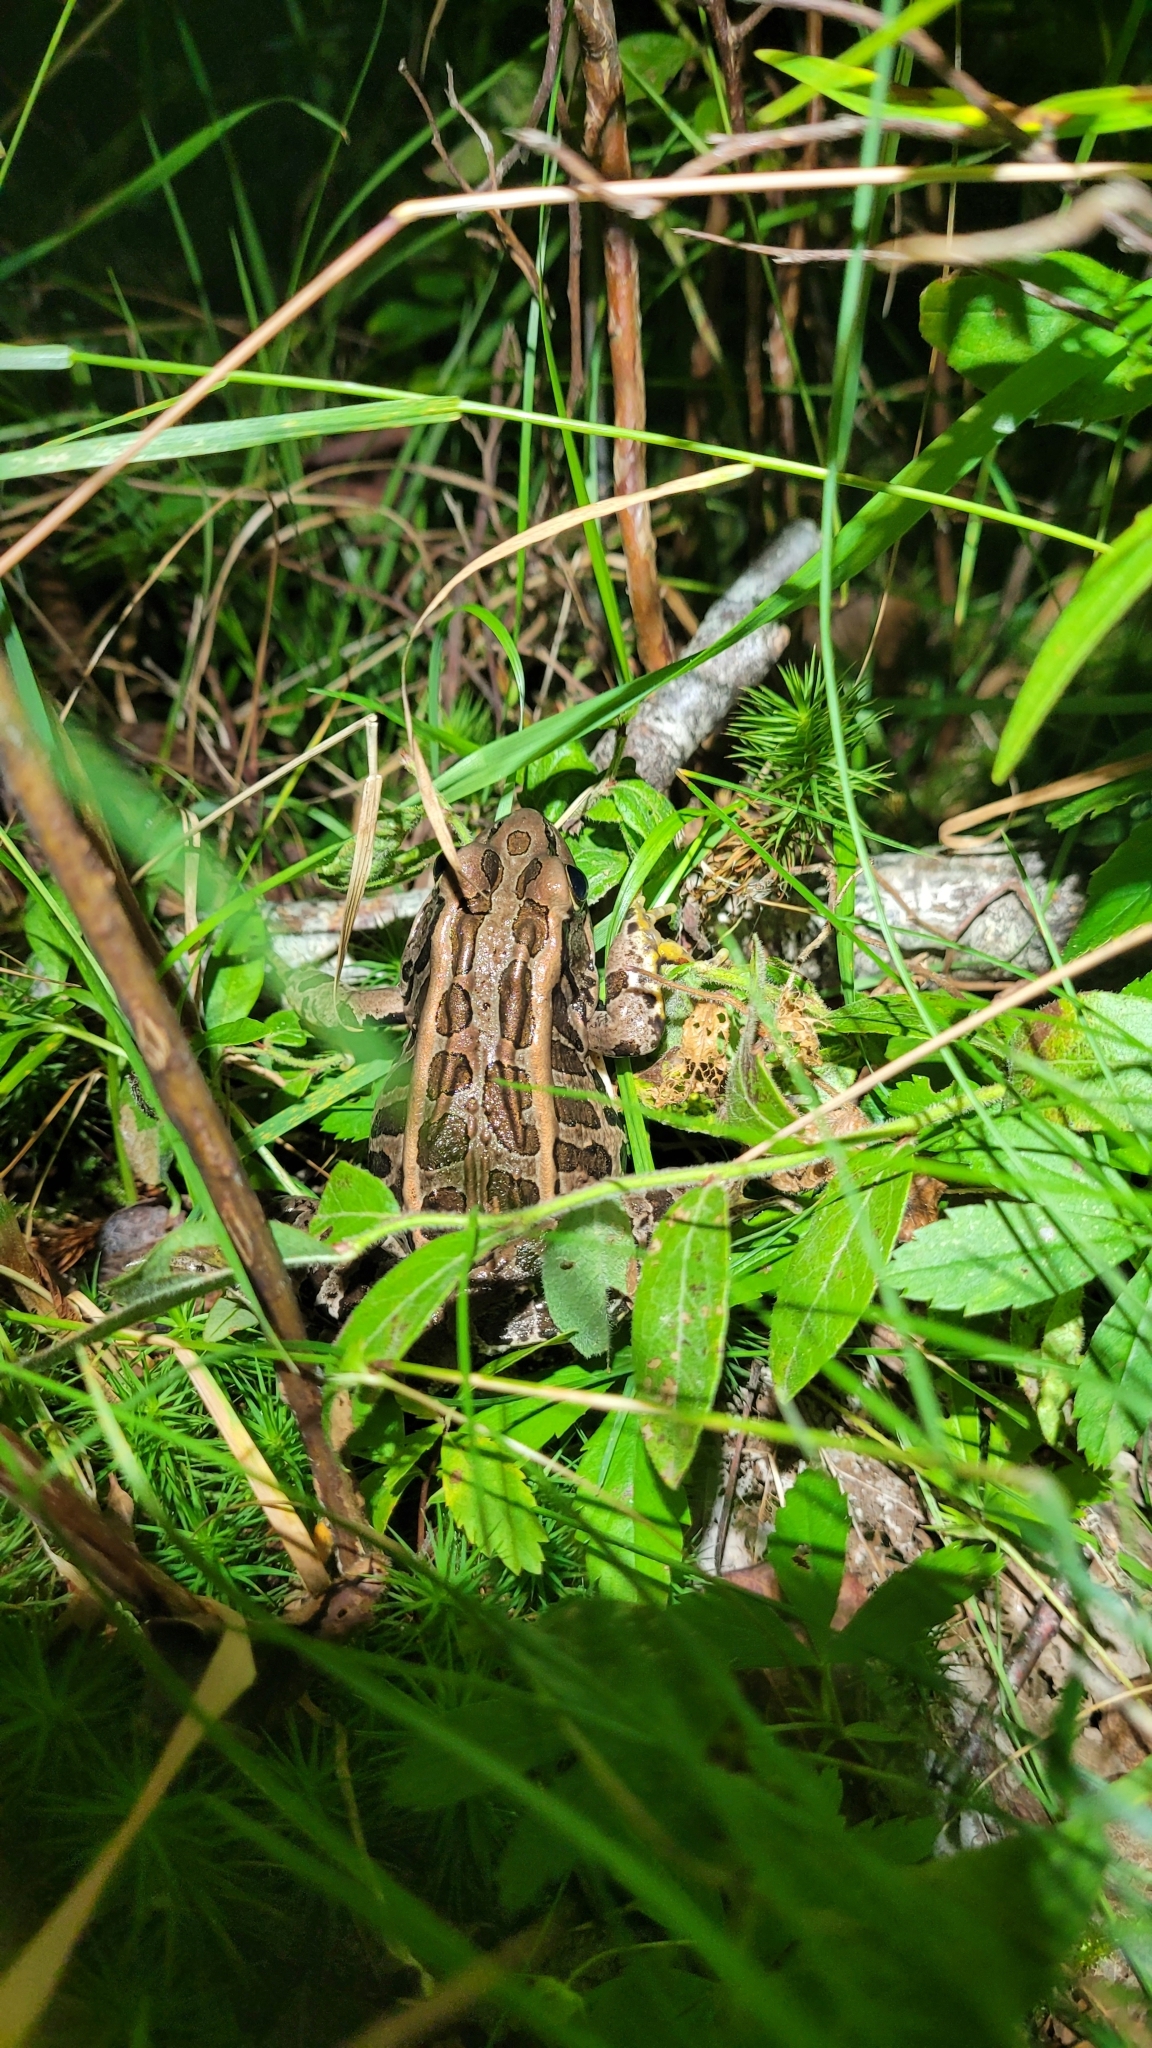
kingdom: Animalia
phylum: Chordata
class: Amphibia
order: Anura
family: Ranidae
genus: Lithobates
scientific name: Lithobates palustris
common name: Pickerel frog
